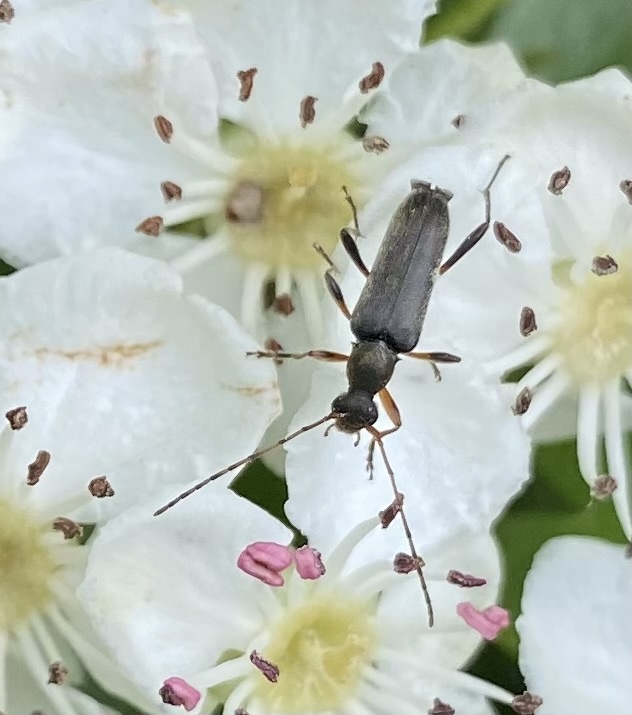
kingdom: Animalia
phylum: Arthropoda
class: Insecta
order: Coleoptera
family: Cerambycidae
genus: Grammoptera
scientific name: Grammoptera ruficornis
